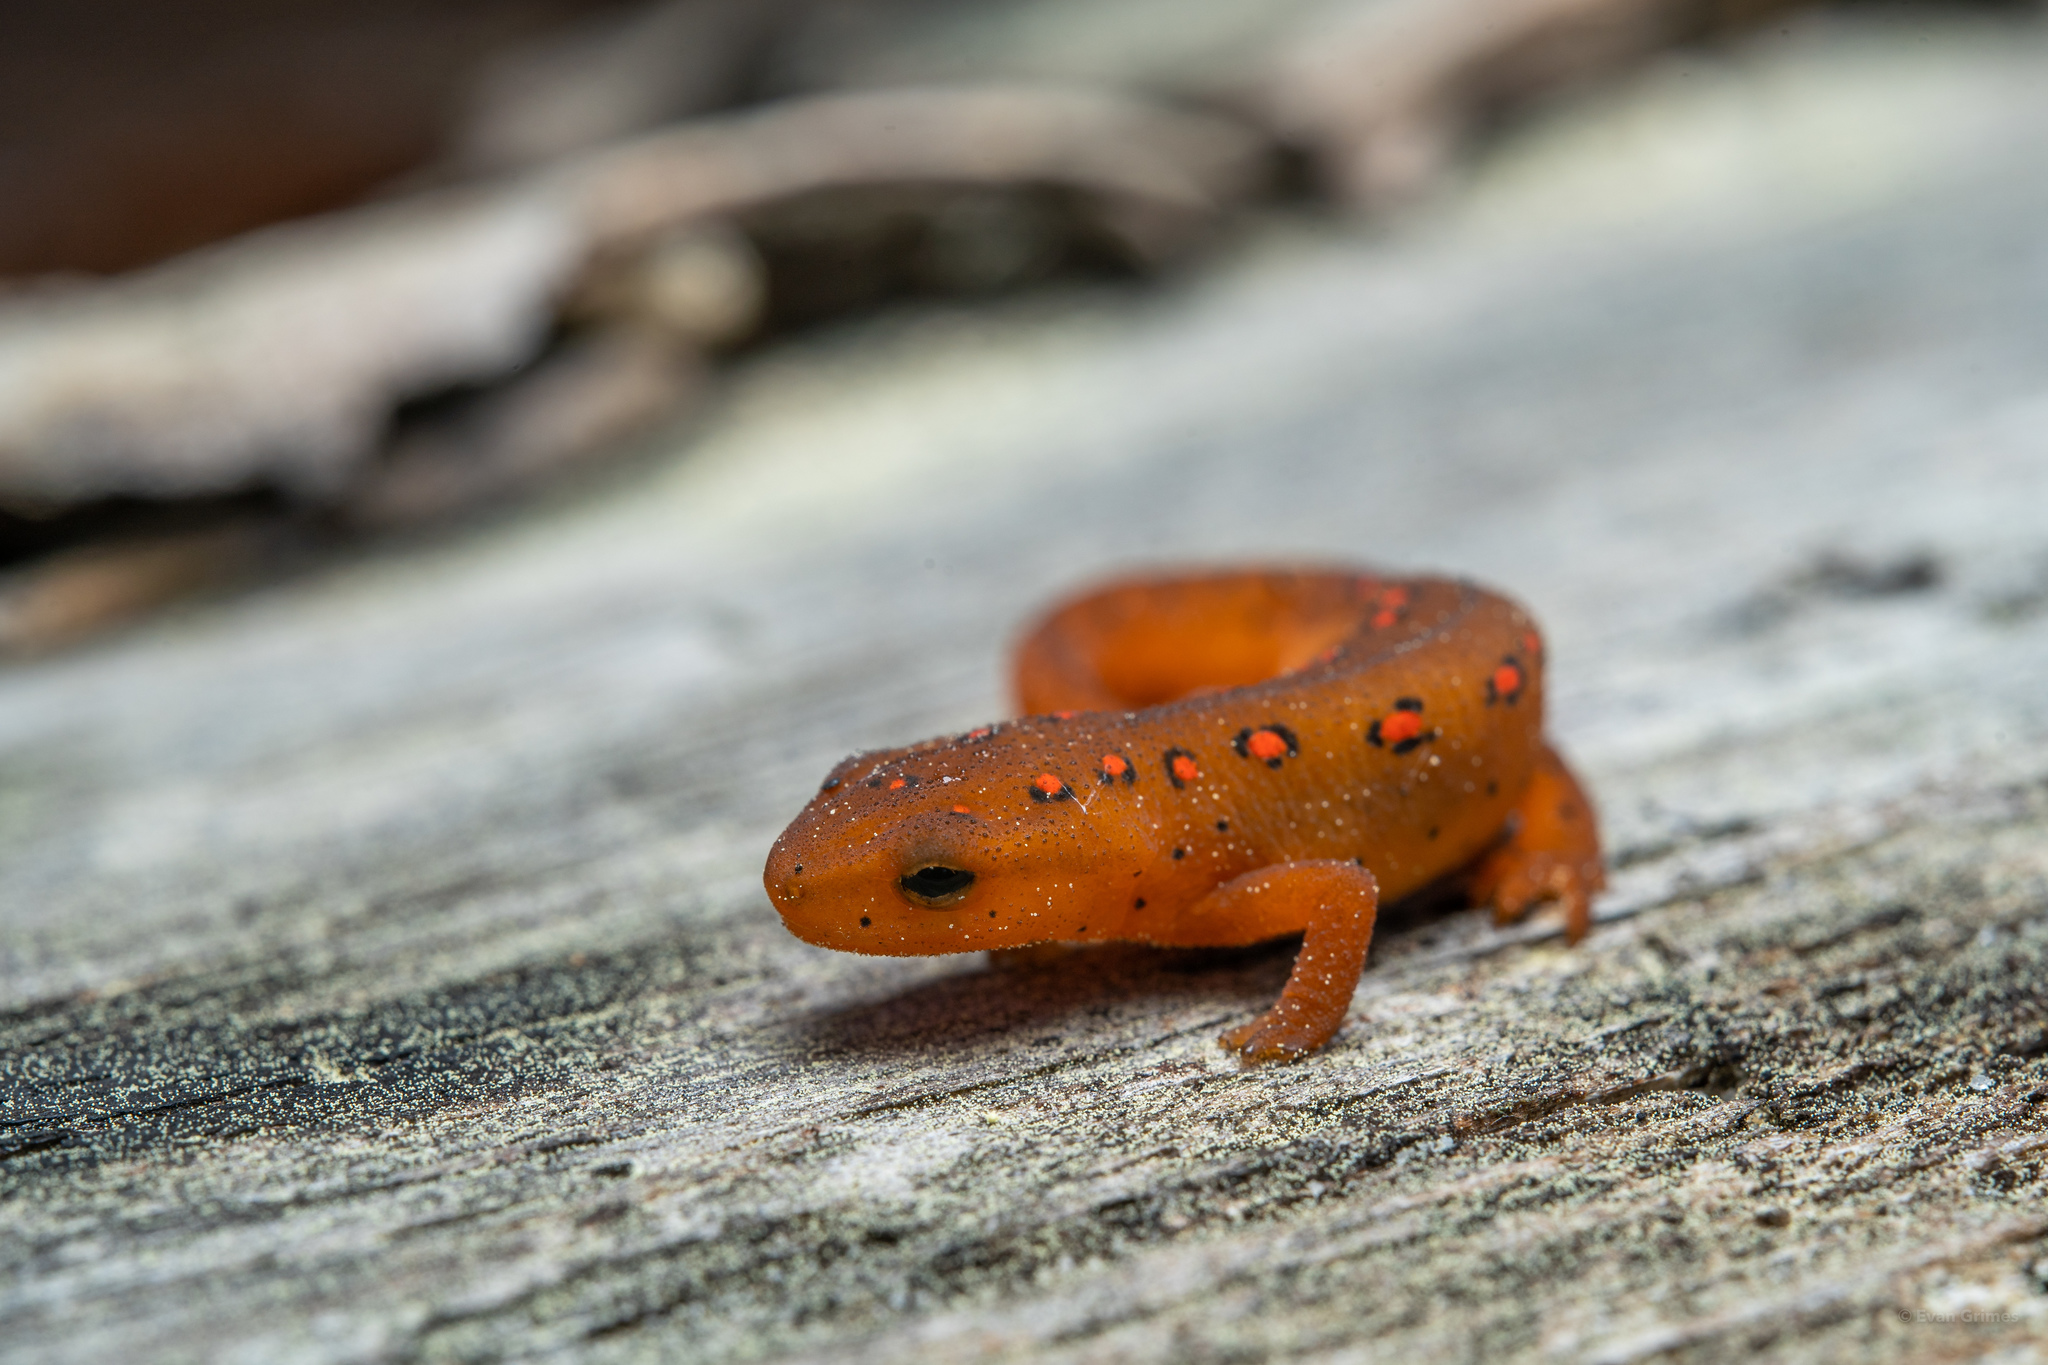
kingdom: Animalia
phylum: Chordata
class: Amphibia
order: Caudata
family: Salamandridae
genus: Notophthalmus
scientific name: Notophthalmus viridescens
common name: Eastern newt
